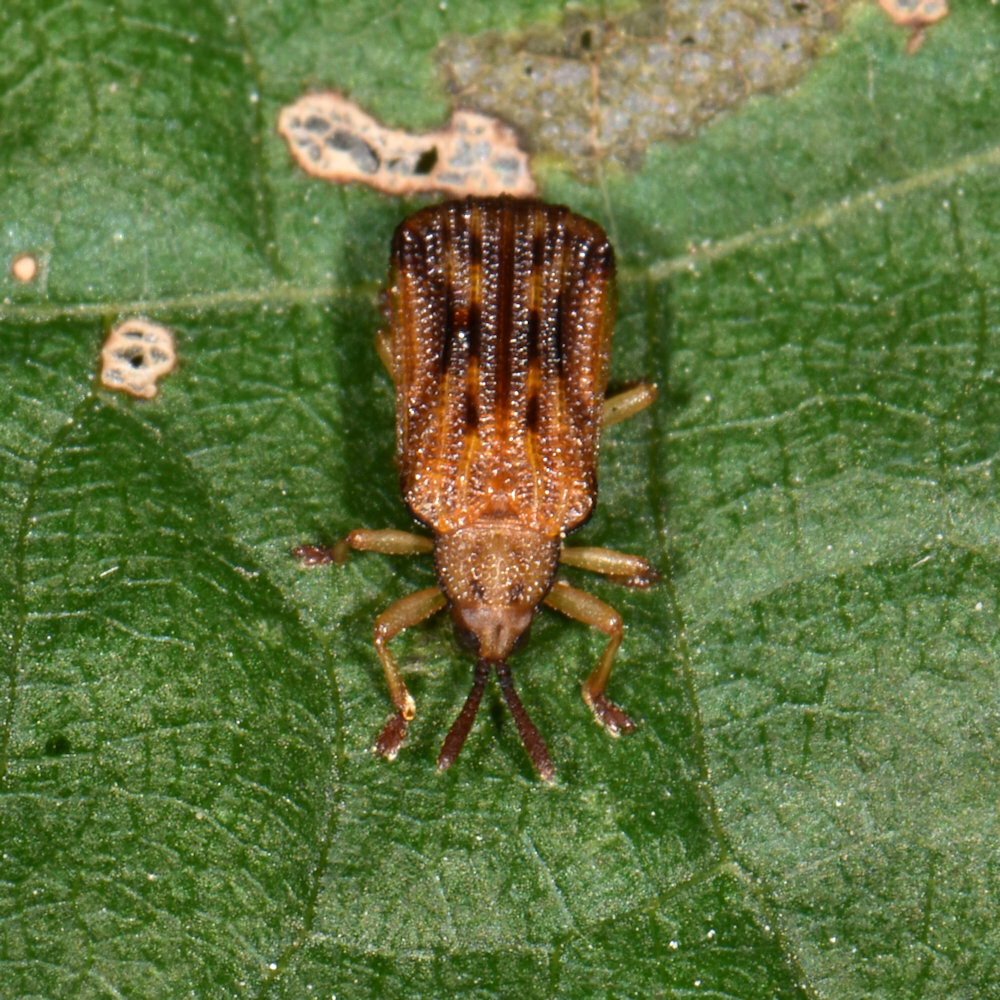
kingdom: Animalia
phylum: Arthropoda
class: Insecta
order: Coleoptera
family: Chrysomelidae
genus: Baliosus
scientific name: Baliosus nervosus
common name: Basswood leaf miner
